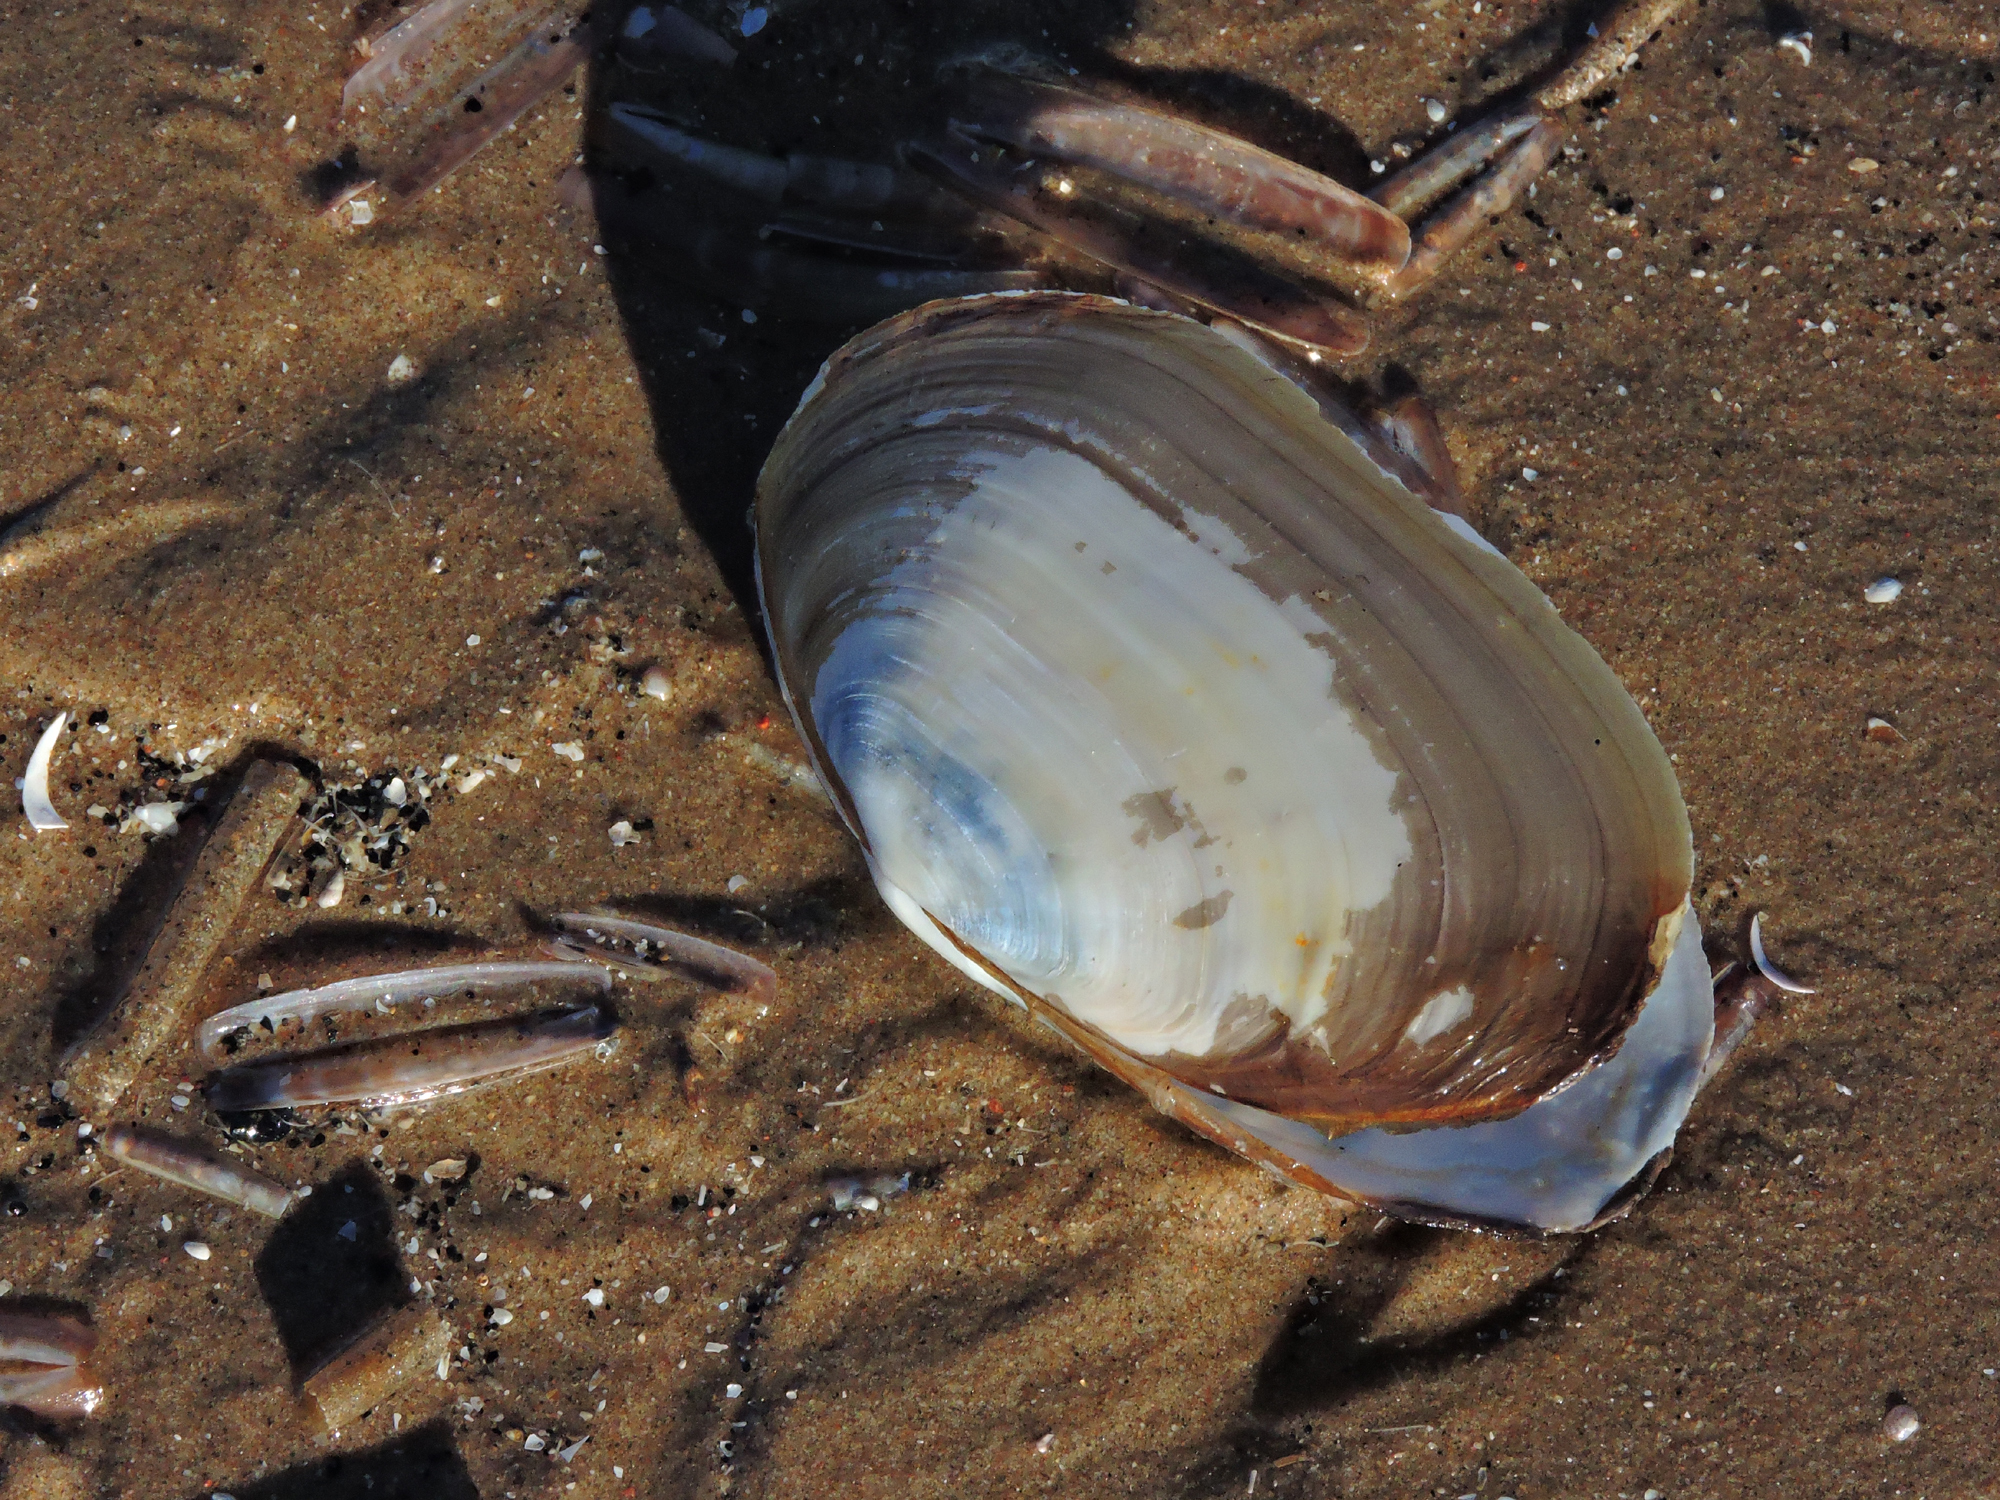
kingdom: Animalia
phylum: Mollusca
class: Bivalvia
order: Venerida
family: Mactridae
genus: Lutraria
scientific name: Lutraria lutraria
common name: Common otter shell
